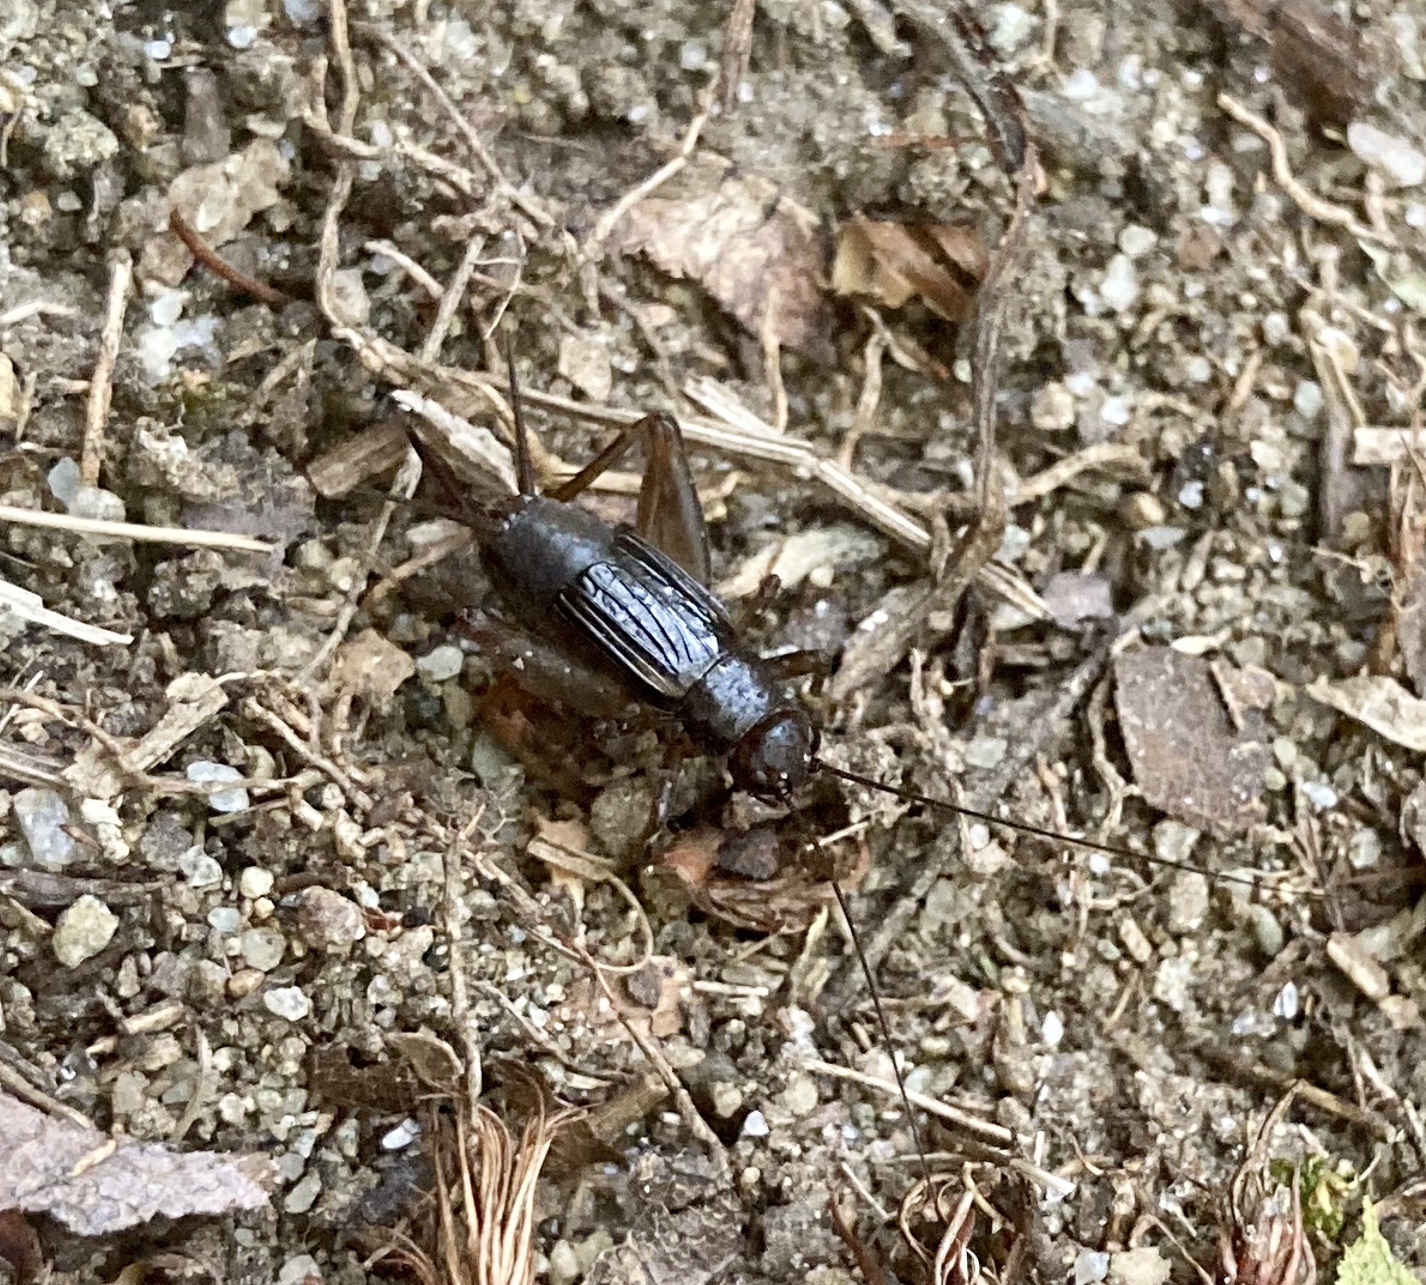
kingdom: Animalia
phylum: Arthropoda
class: Insecta
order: Orthoptera
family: Trigonidiidae
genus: Eunemobius
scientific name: Eunemobius carolinus
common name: Carolina ground cricket
